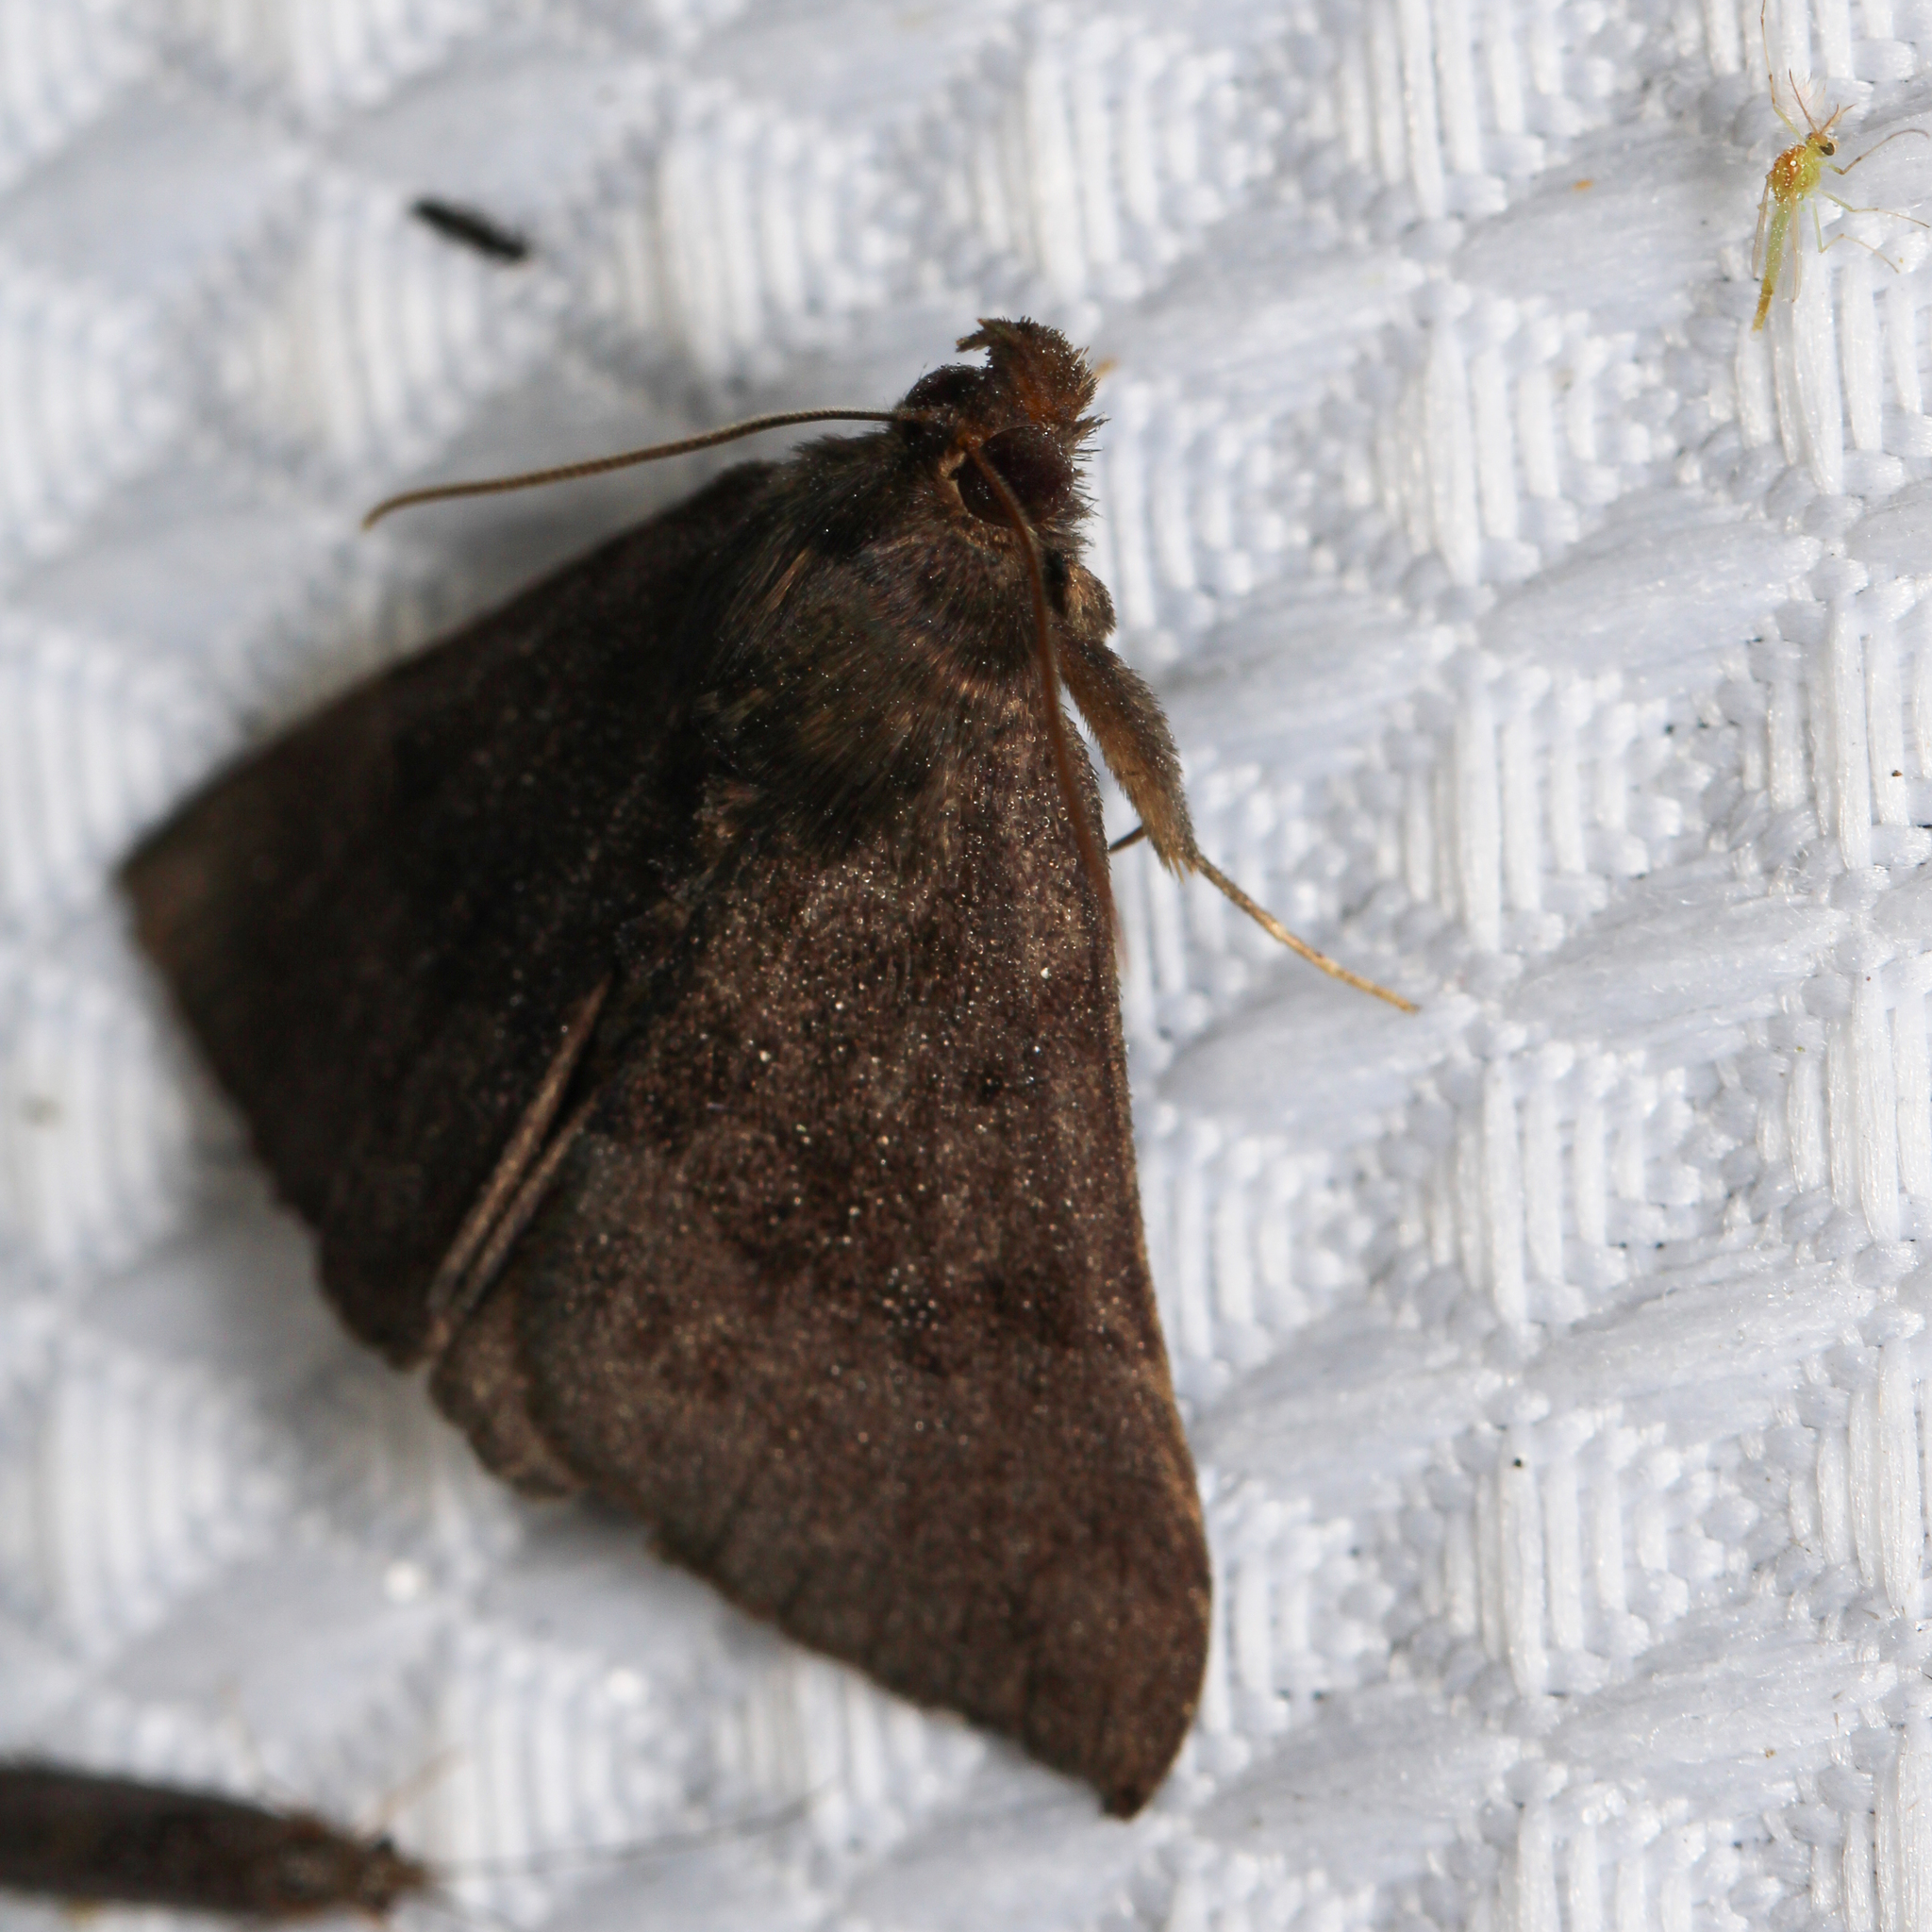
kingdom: Animalia
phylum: Arthropoda
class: Insecta
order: Lepidoptera
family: Erebidae
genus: Hypena
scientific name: Hypena madefactalis
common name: Gray-edged snout
